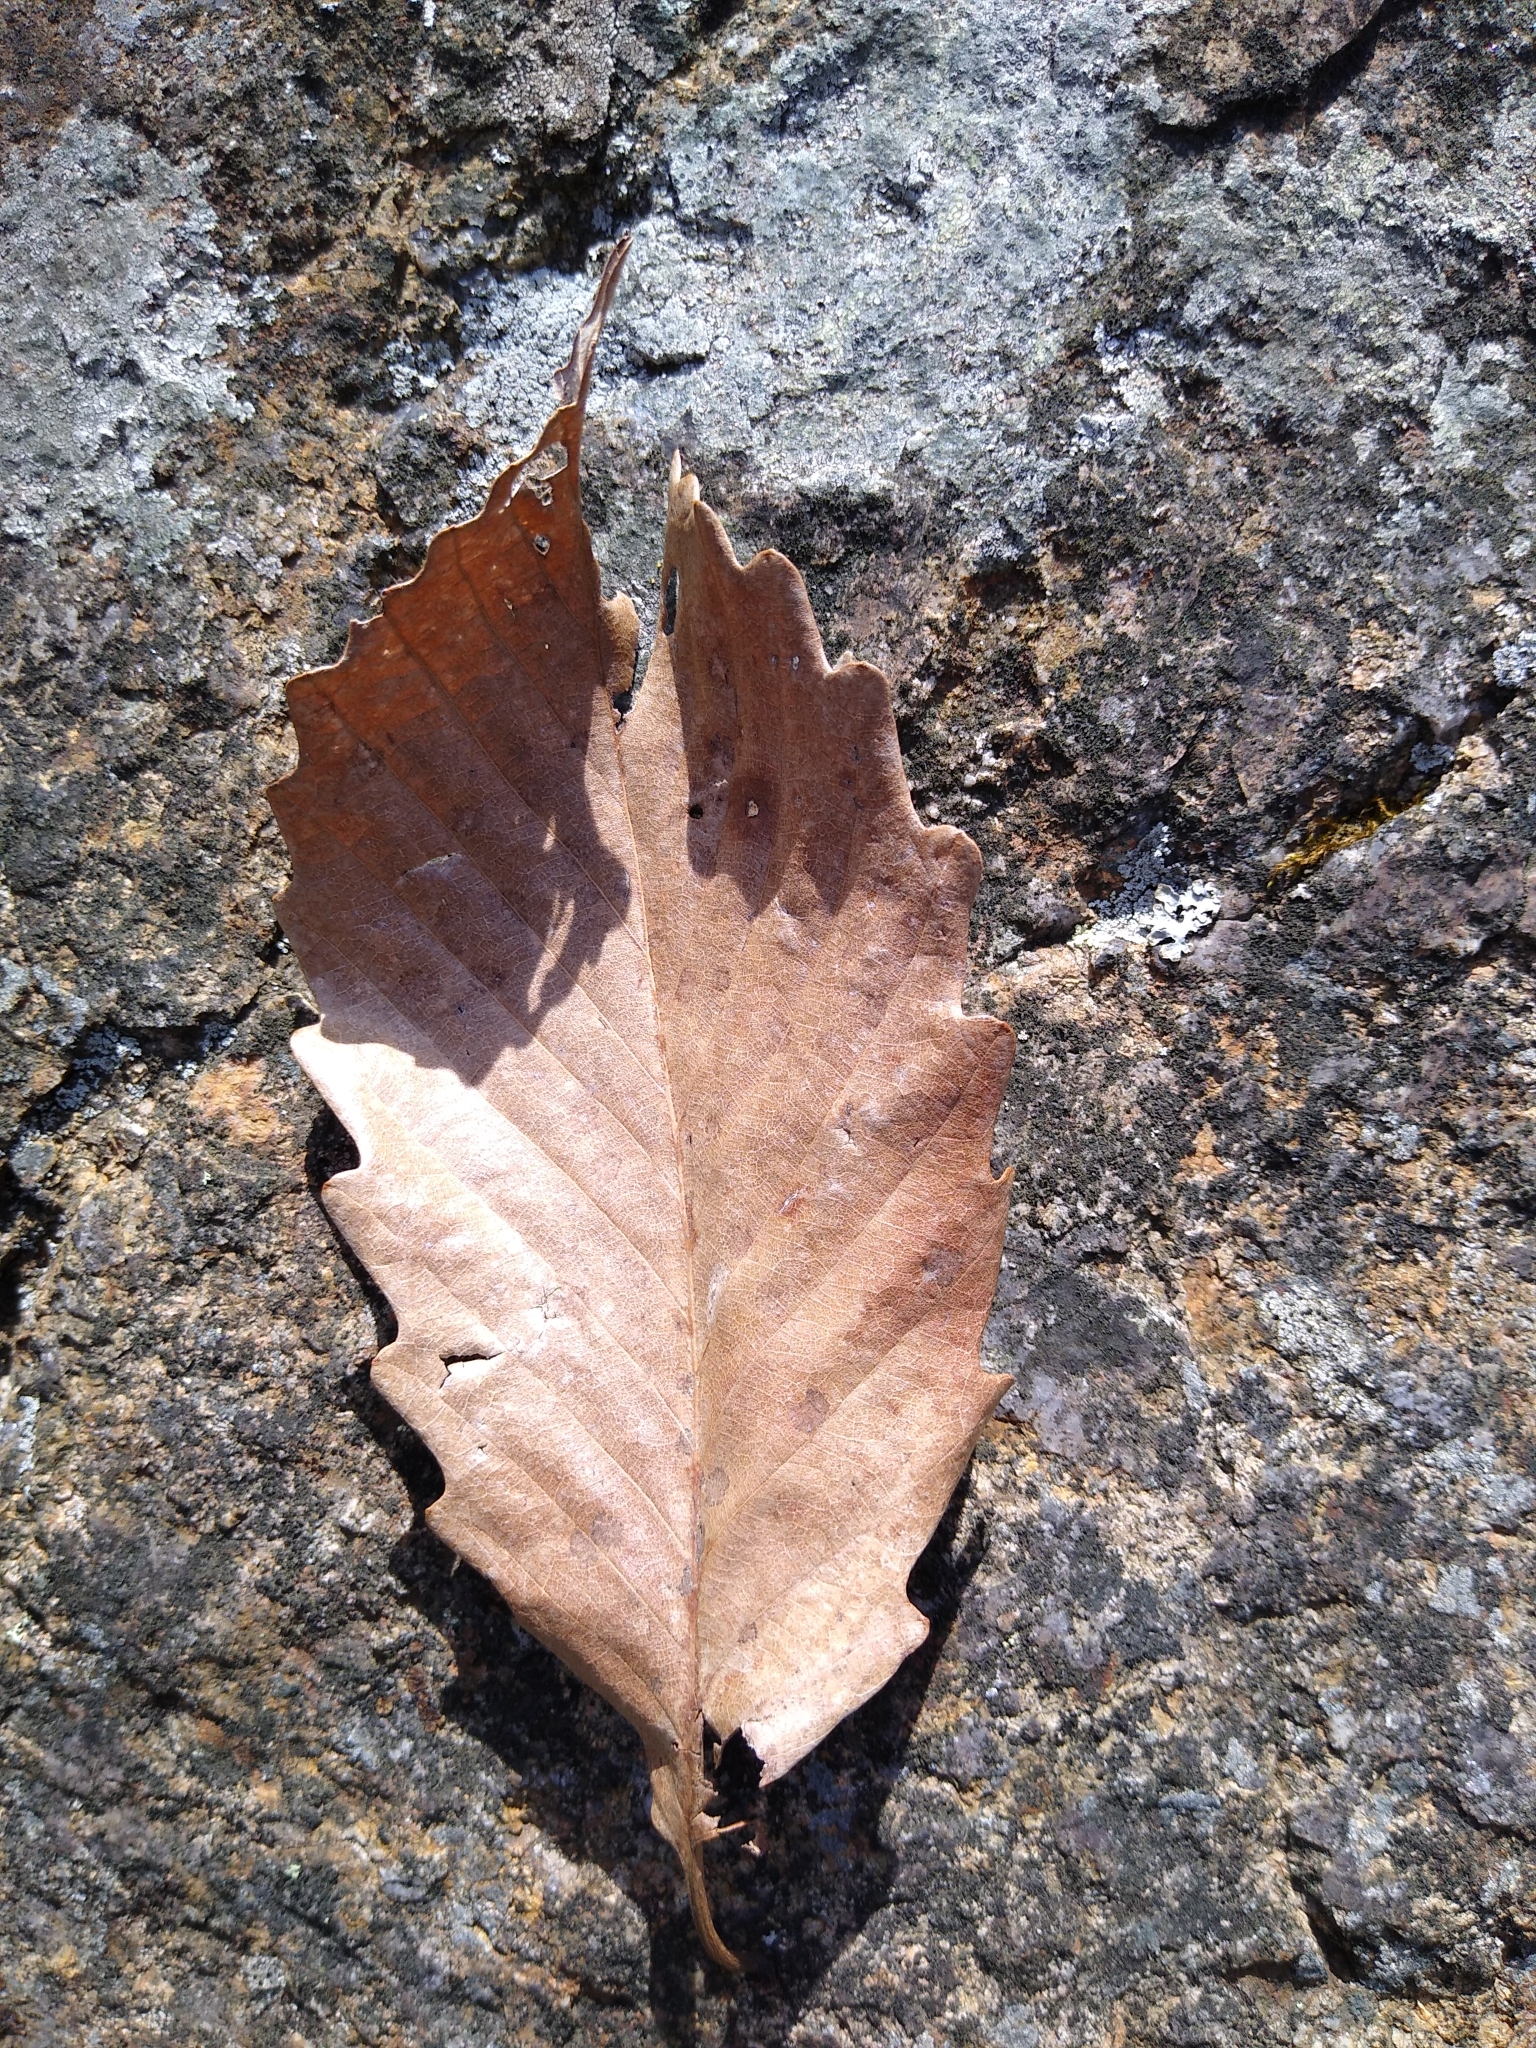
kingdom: Plantae
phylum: Tracheophyta
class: Magnoliopsida
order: Fagales
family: Fagaceae
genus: Quercus
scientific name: Quercus montana
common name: Chestnut oak
